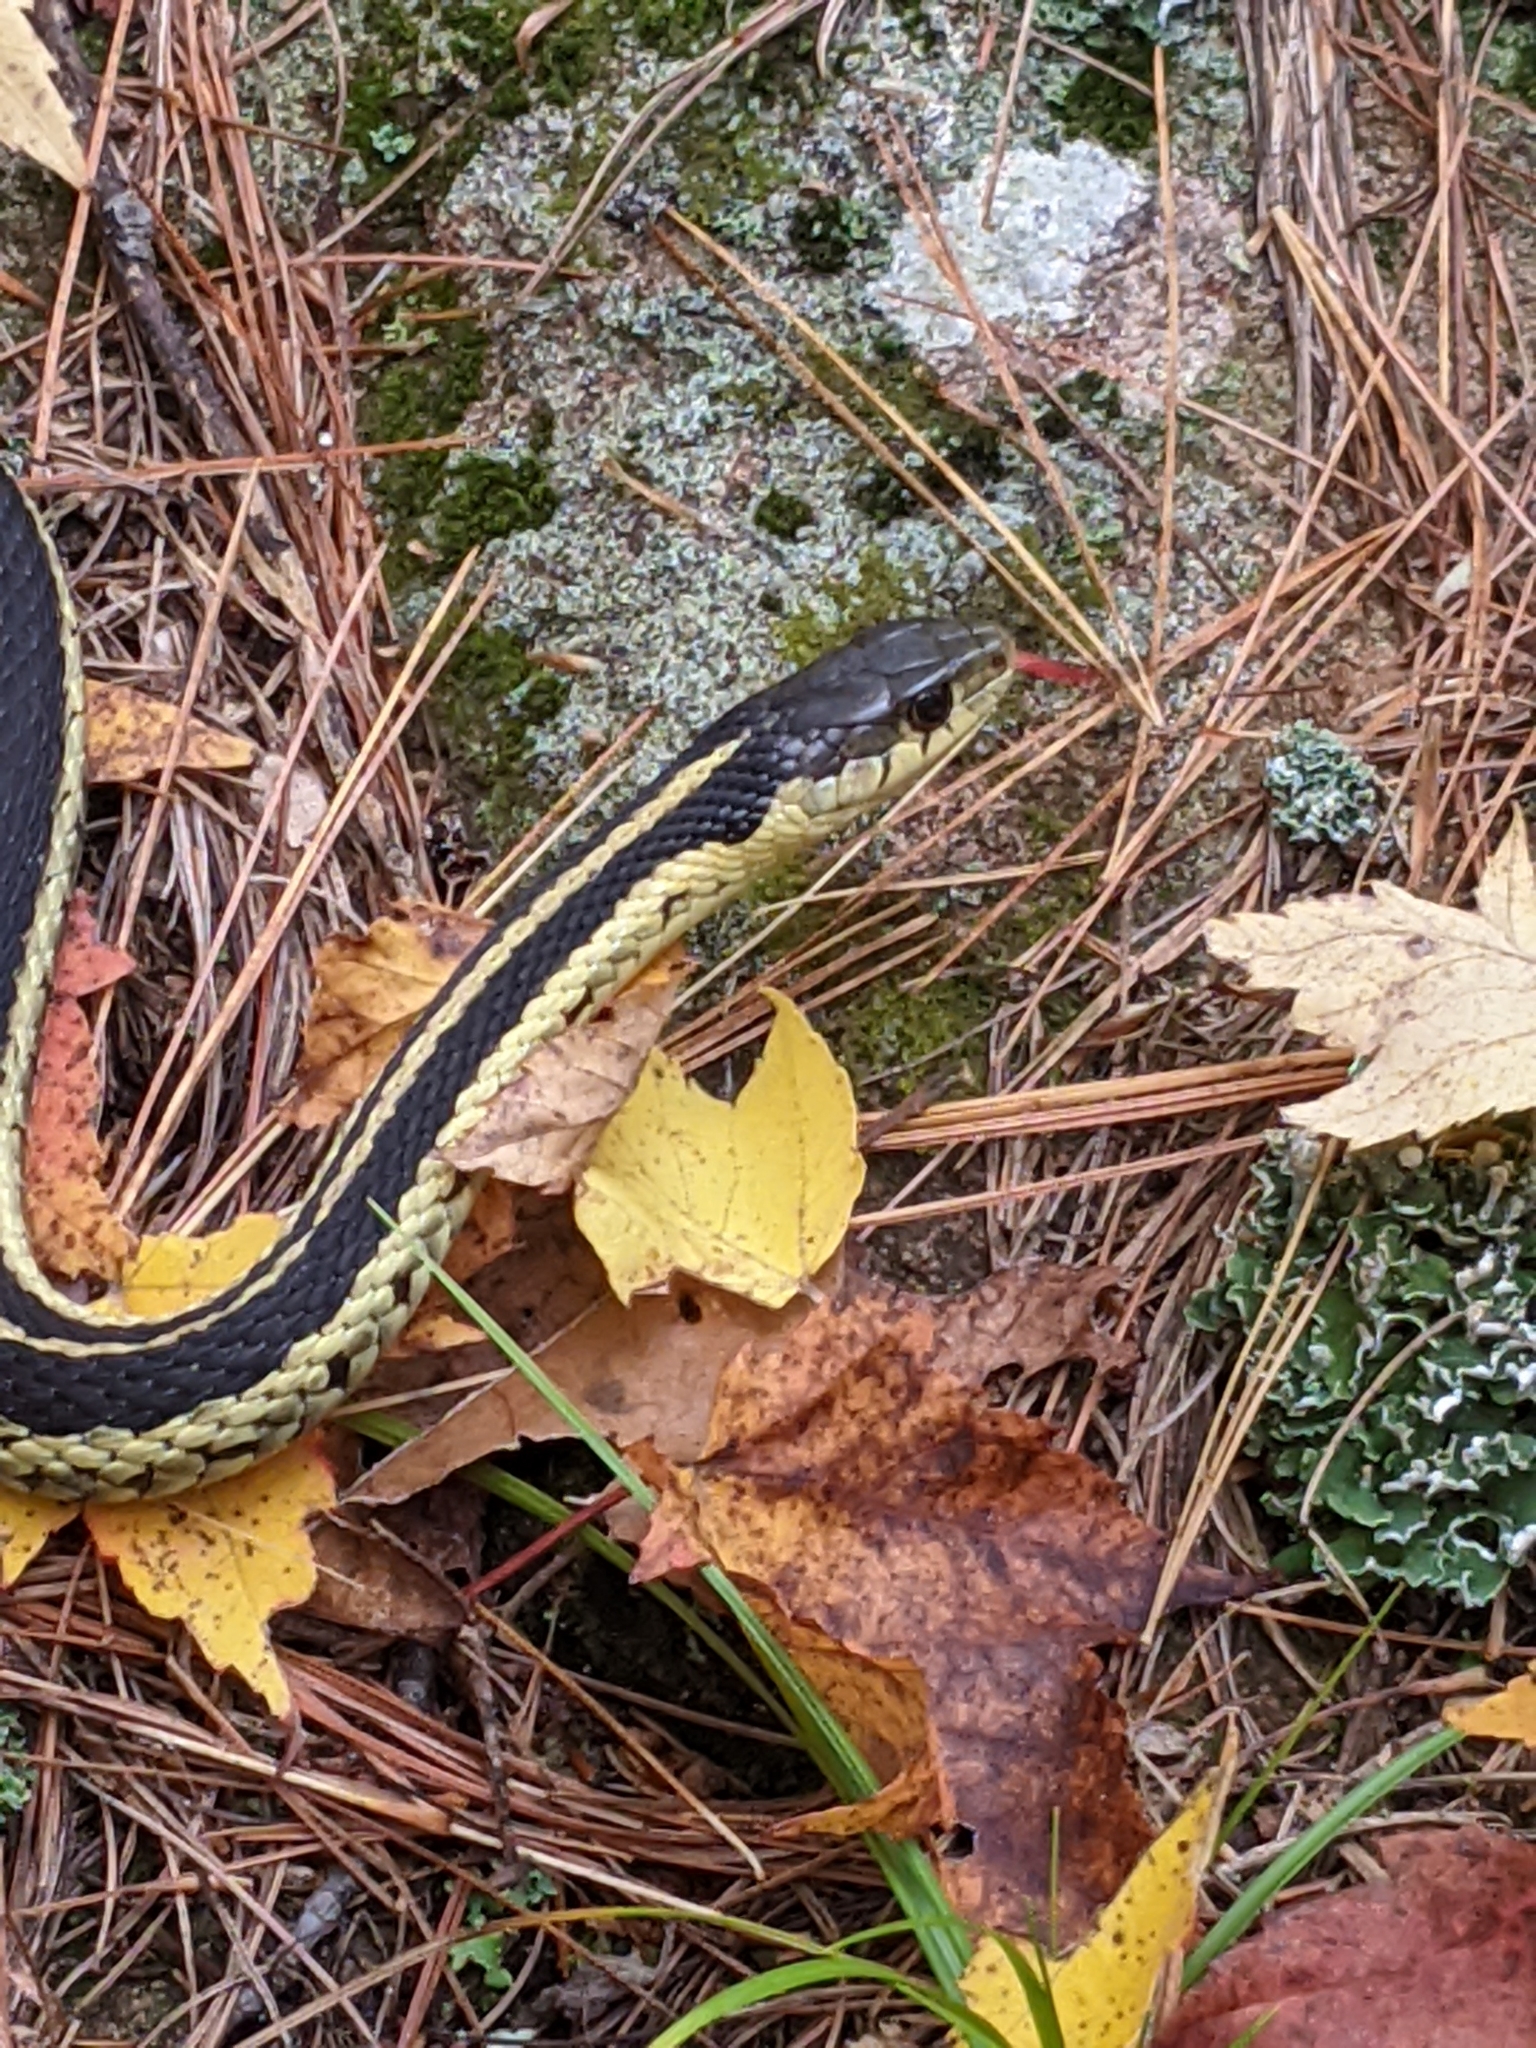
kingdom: Animalia
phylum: Chordata
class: Squamata
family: Colubridae
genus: Thamnophis
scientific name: Thamnophis sirtalis
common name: Common garter snake
